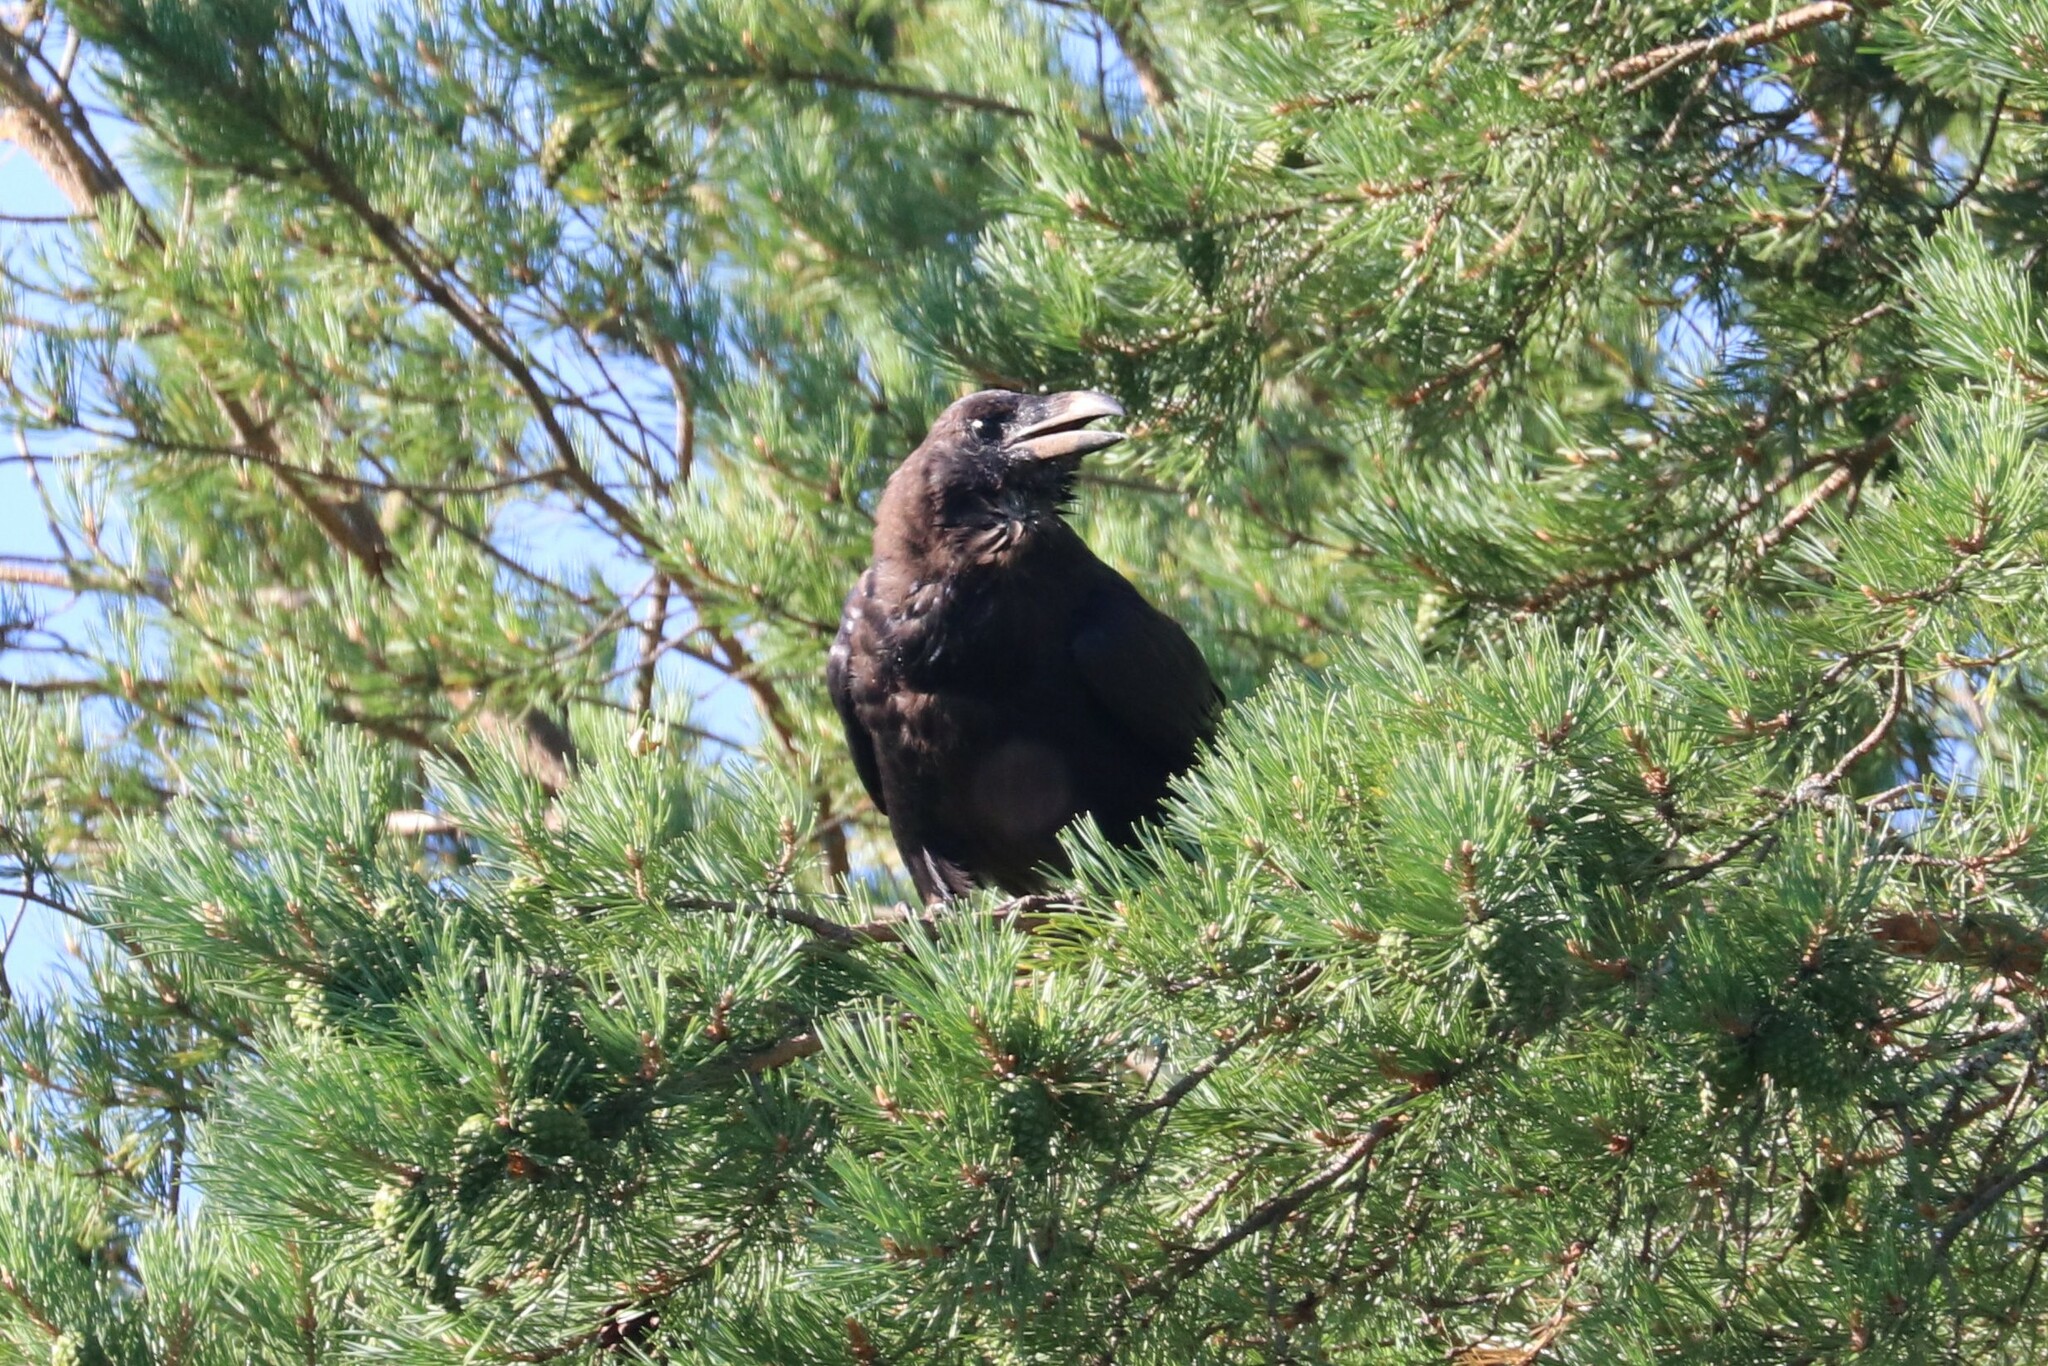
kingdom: Animalia
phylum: Chordata
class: Aves
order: Passeriformes
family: Corvidae
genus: Corvus
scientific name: Corvus corax
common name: Common raven
